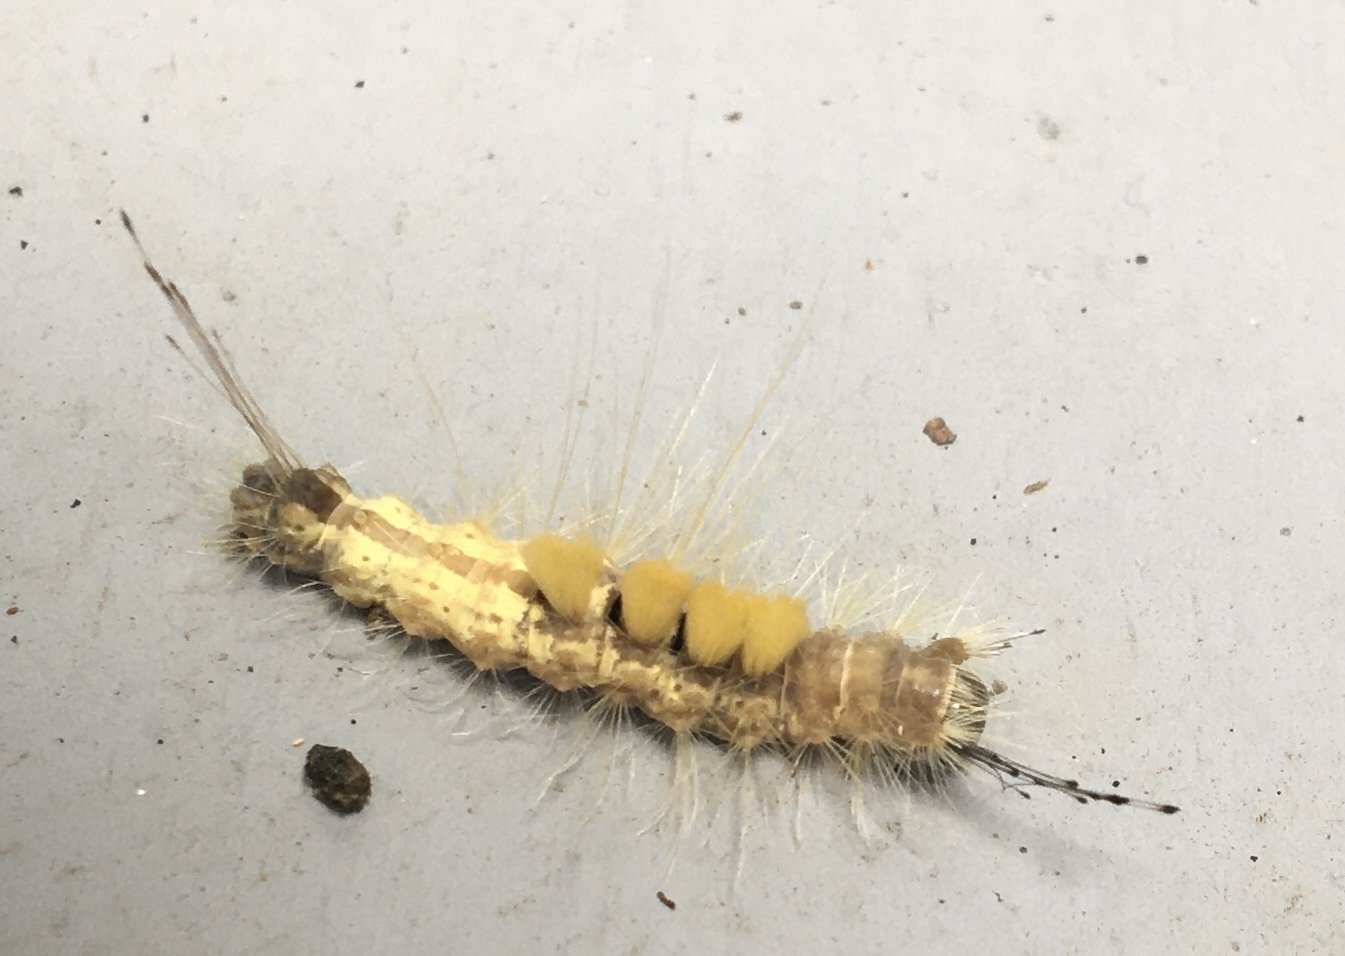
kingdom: Animalia
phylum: Arthropoda
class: Insecta
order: Lepidoptera
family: Erebidae
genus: Orgyia
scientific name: Orgyia definita
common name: Definite tussock moth
